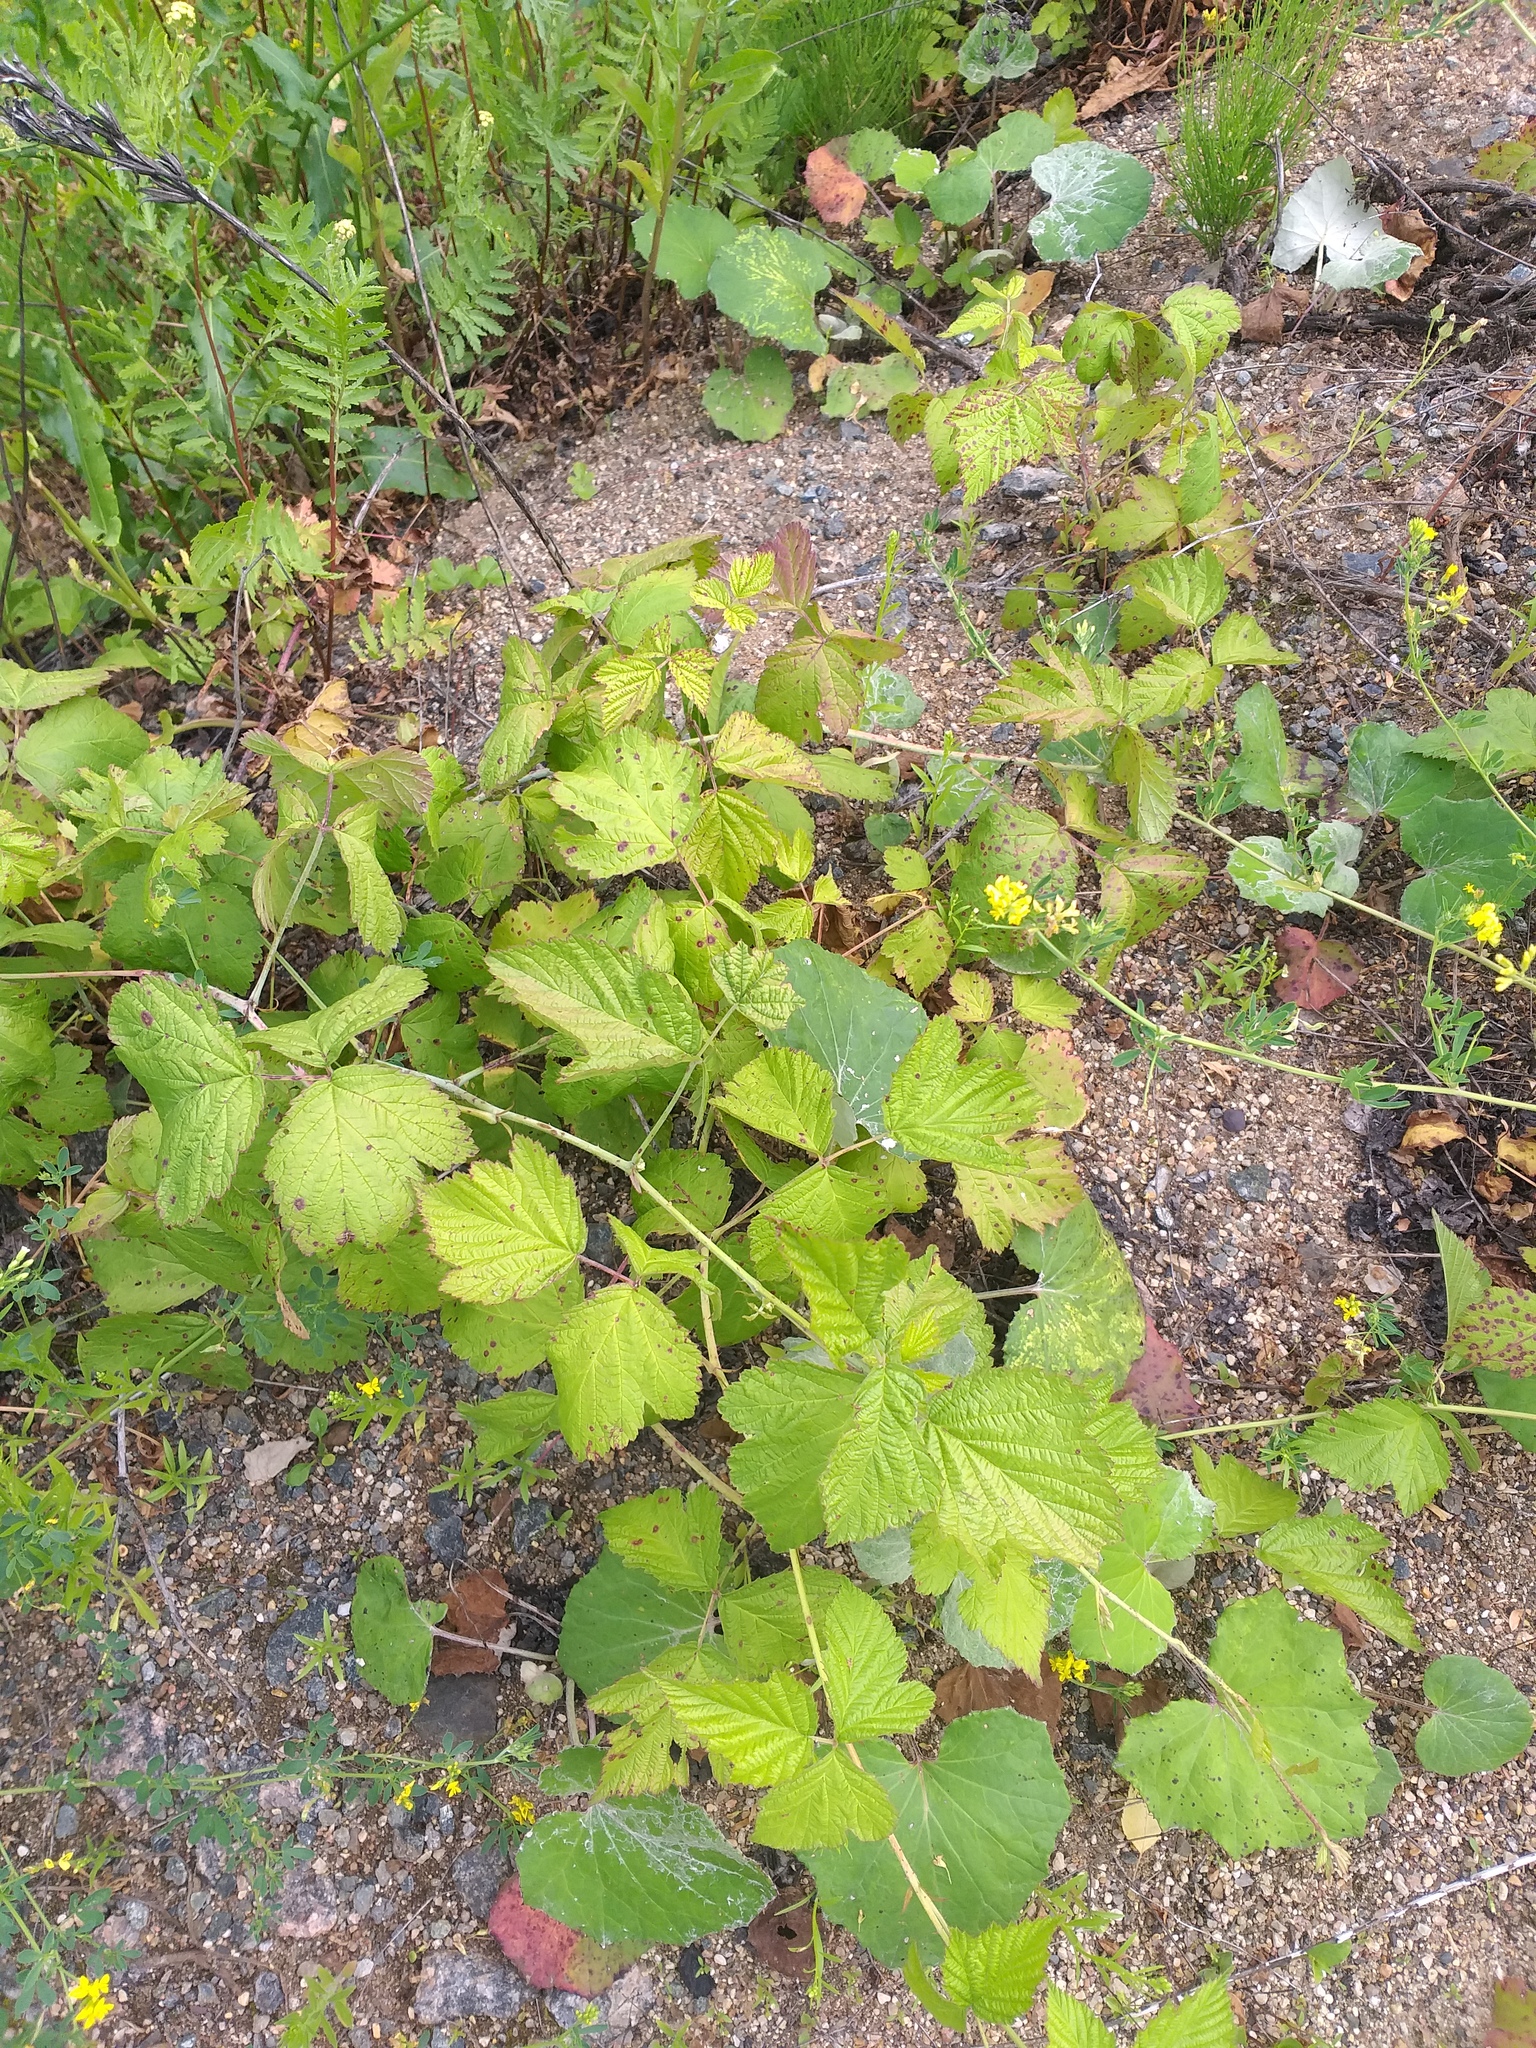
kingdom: Plantae
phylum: Tracheophyta
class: Magnoliopsida
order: Rosales
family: Rosaceae
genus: Rubus
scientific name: Rubus caesius
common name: Dewberry
